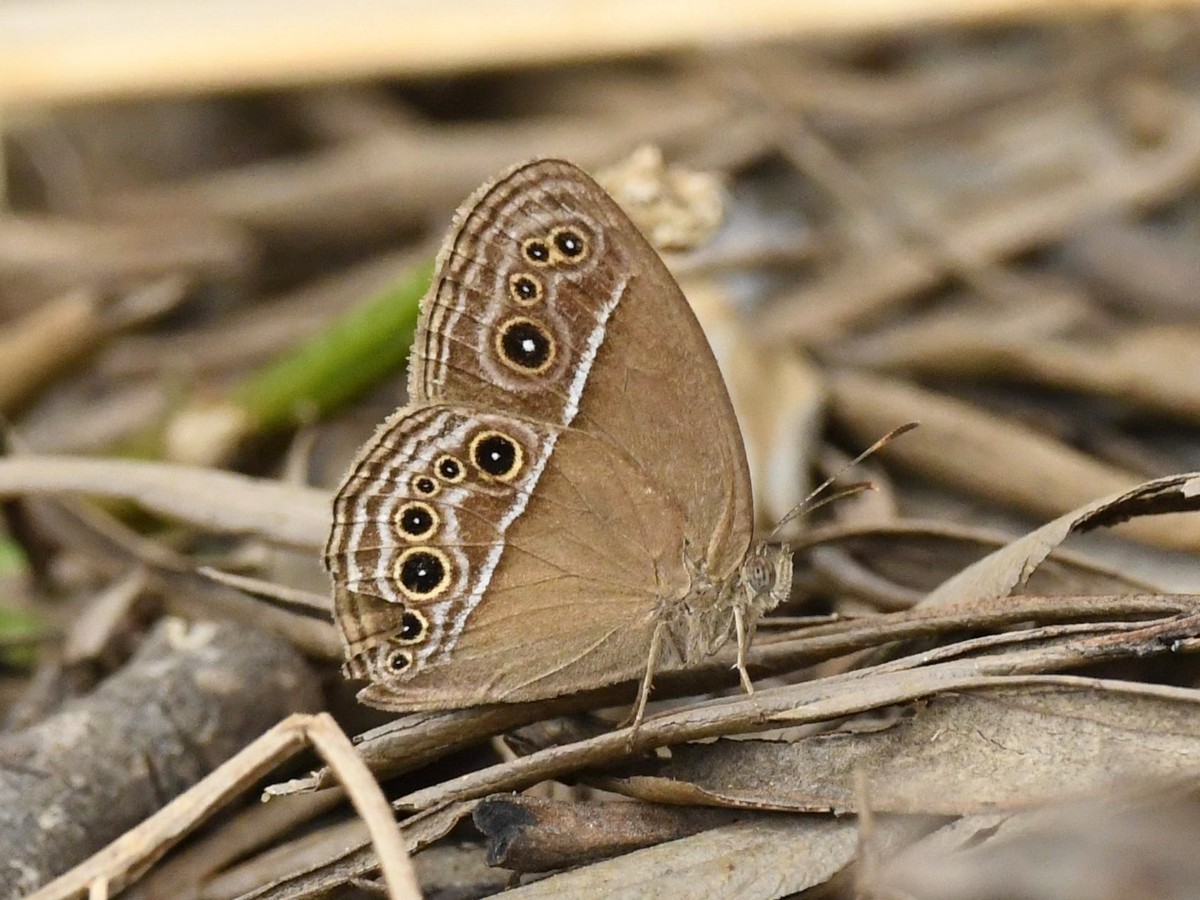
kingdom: Animalia
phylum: Arthropoda
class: Insecta
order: Lepidoptera
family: Nymphalidae
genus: Mycalesis
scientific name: Mycalesis perseus
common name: Dingy bushbrown
